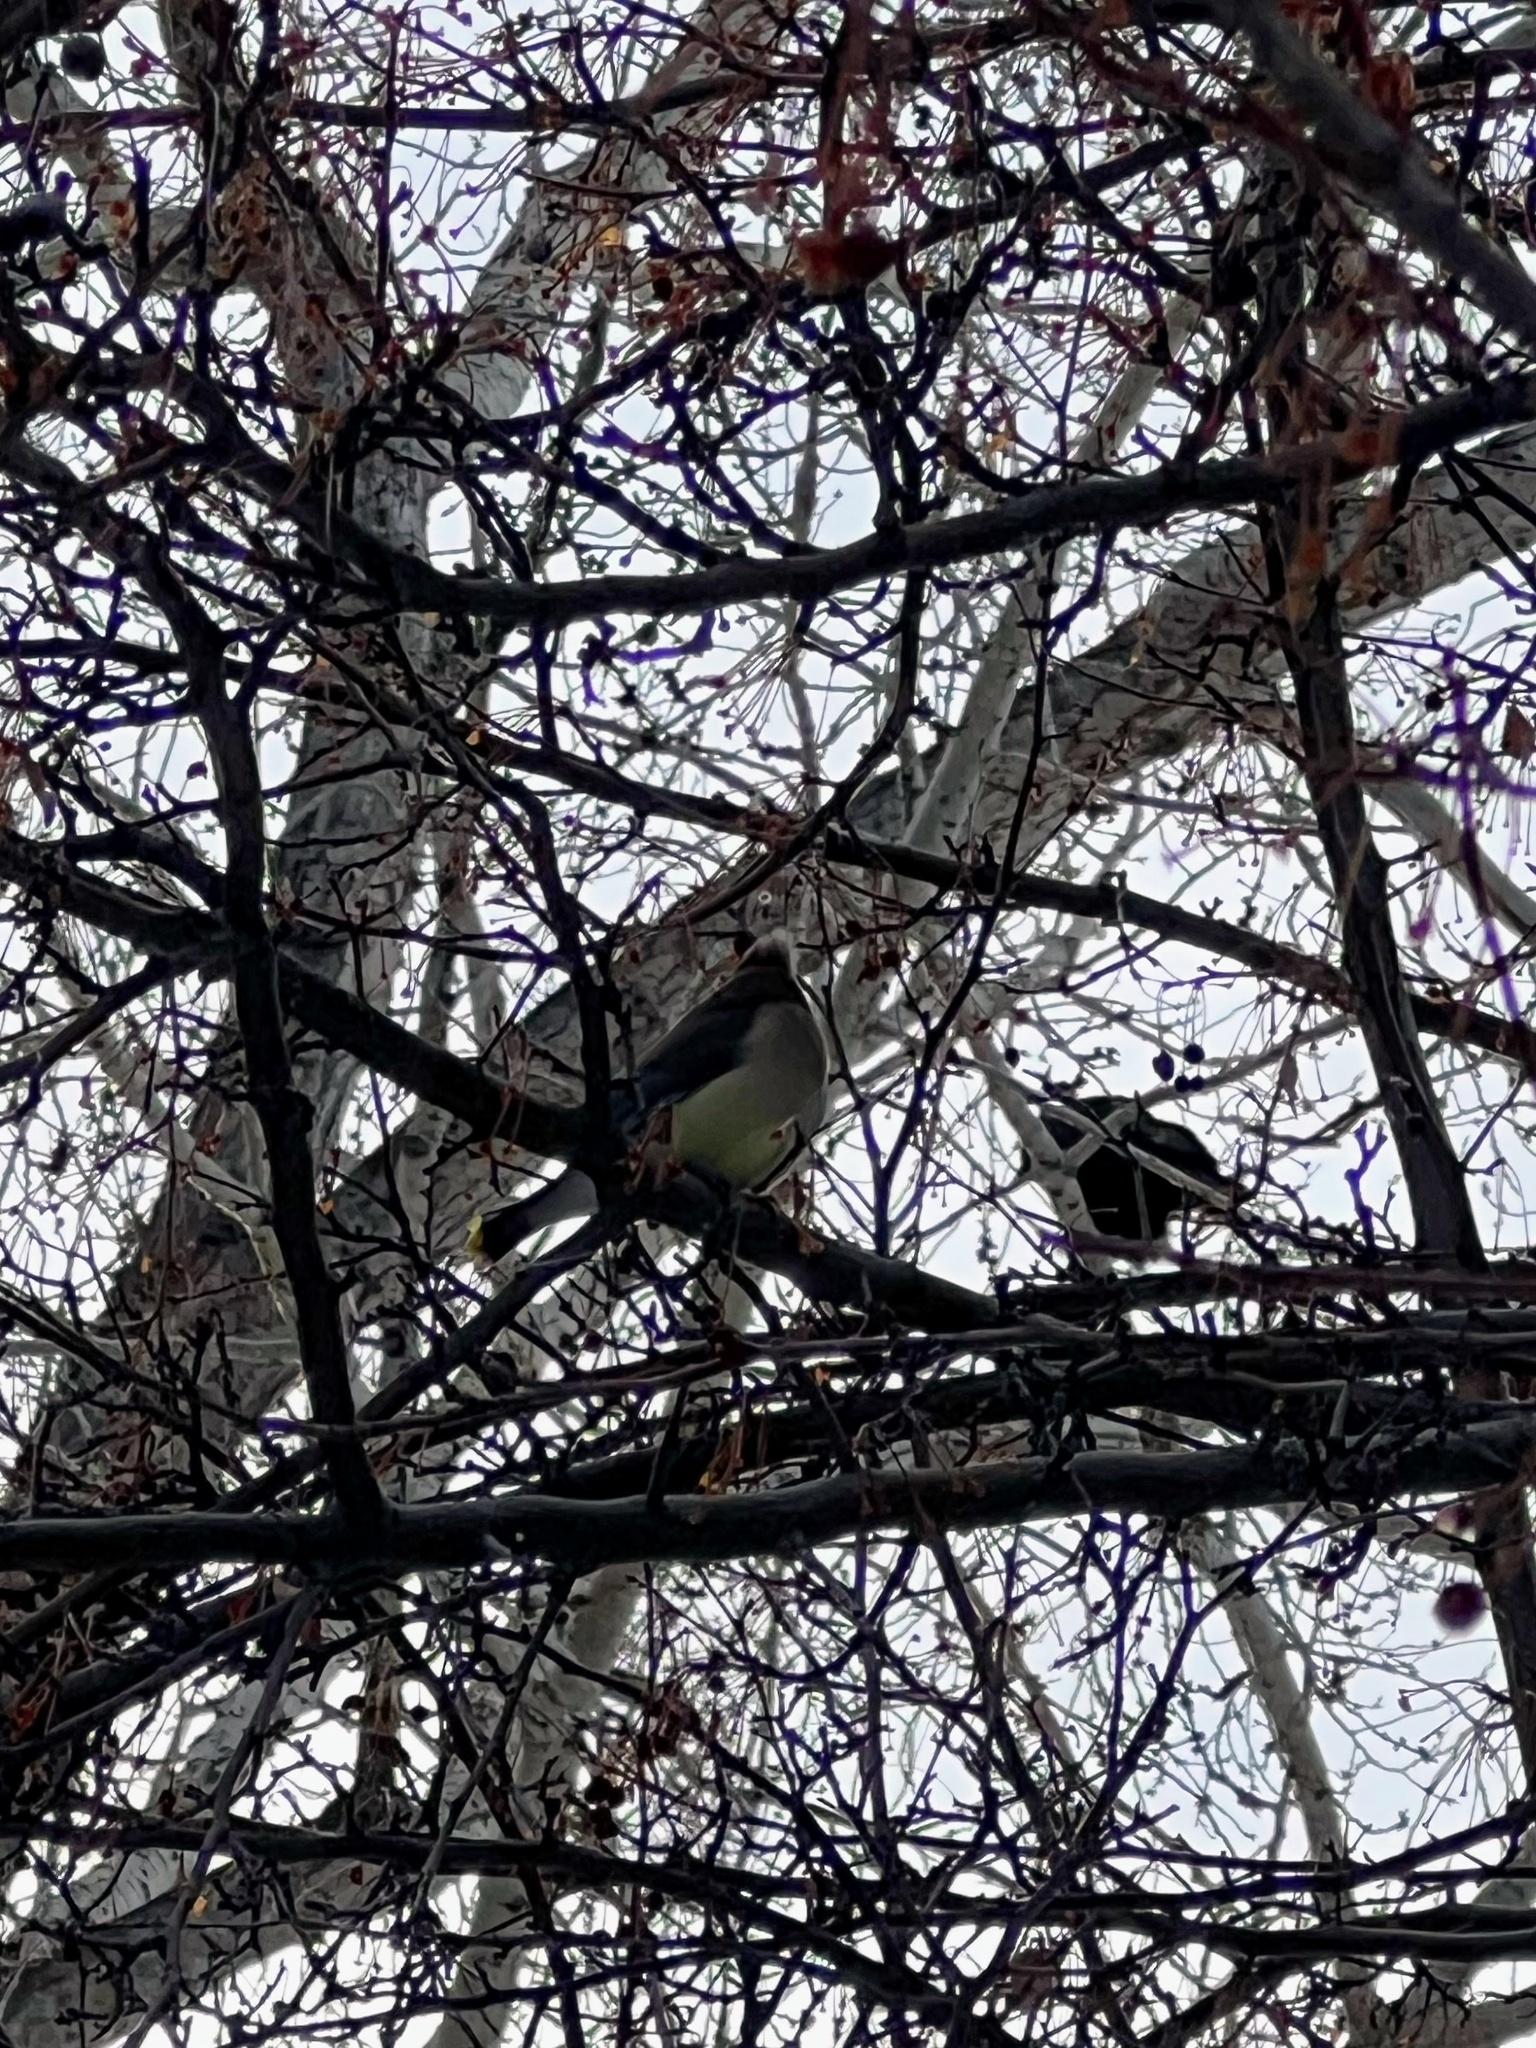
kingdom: Animalia
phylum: Chordata
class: Aves
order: Passeriformes
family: Bombycillidae
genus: Bombycilla
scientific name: Bombycilla cedrorum
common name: Cedar waxwing
